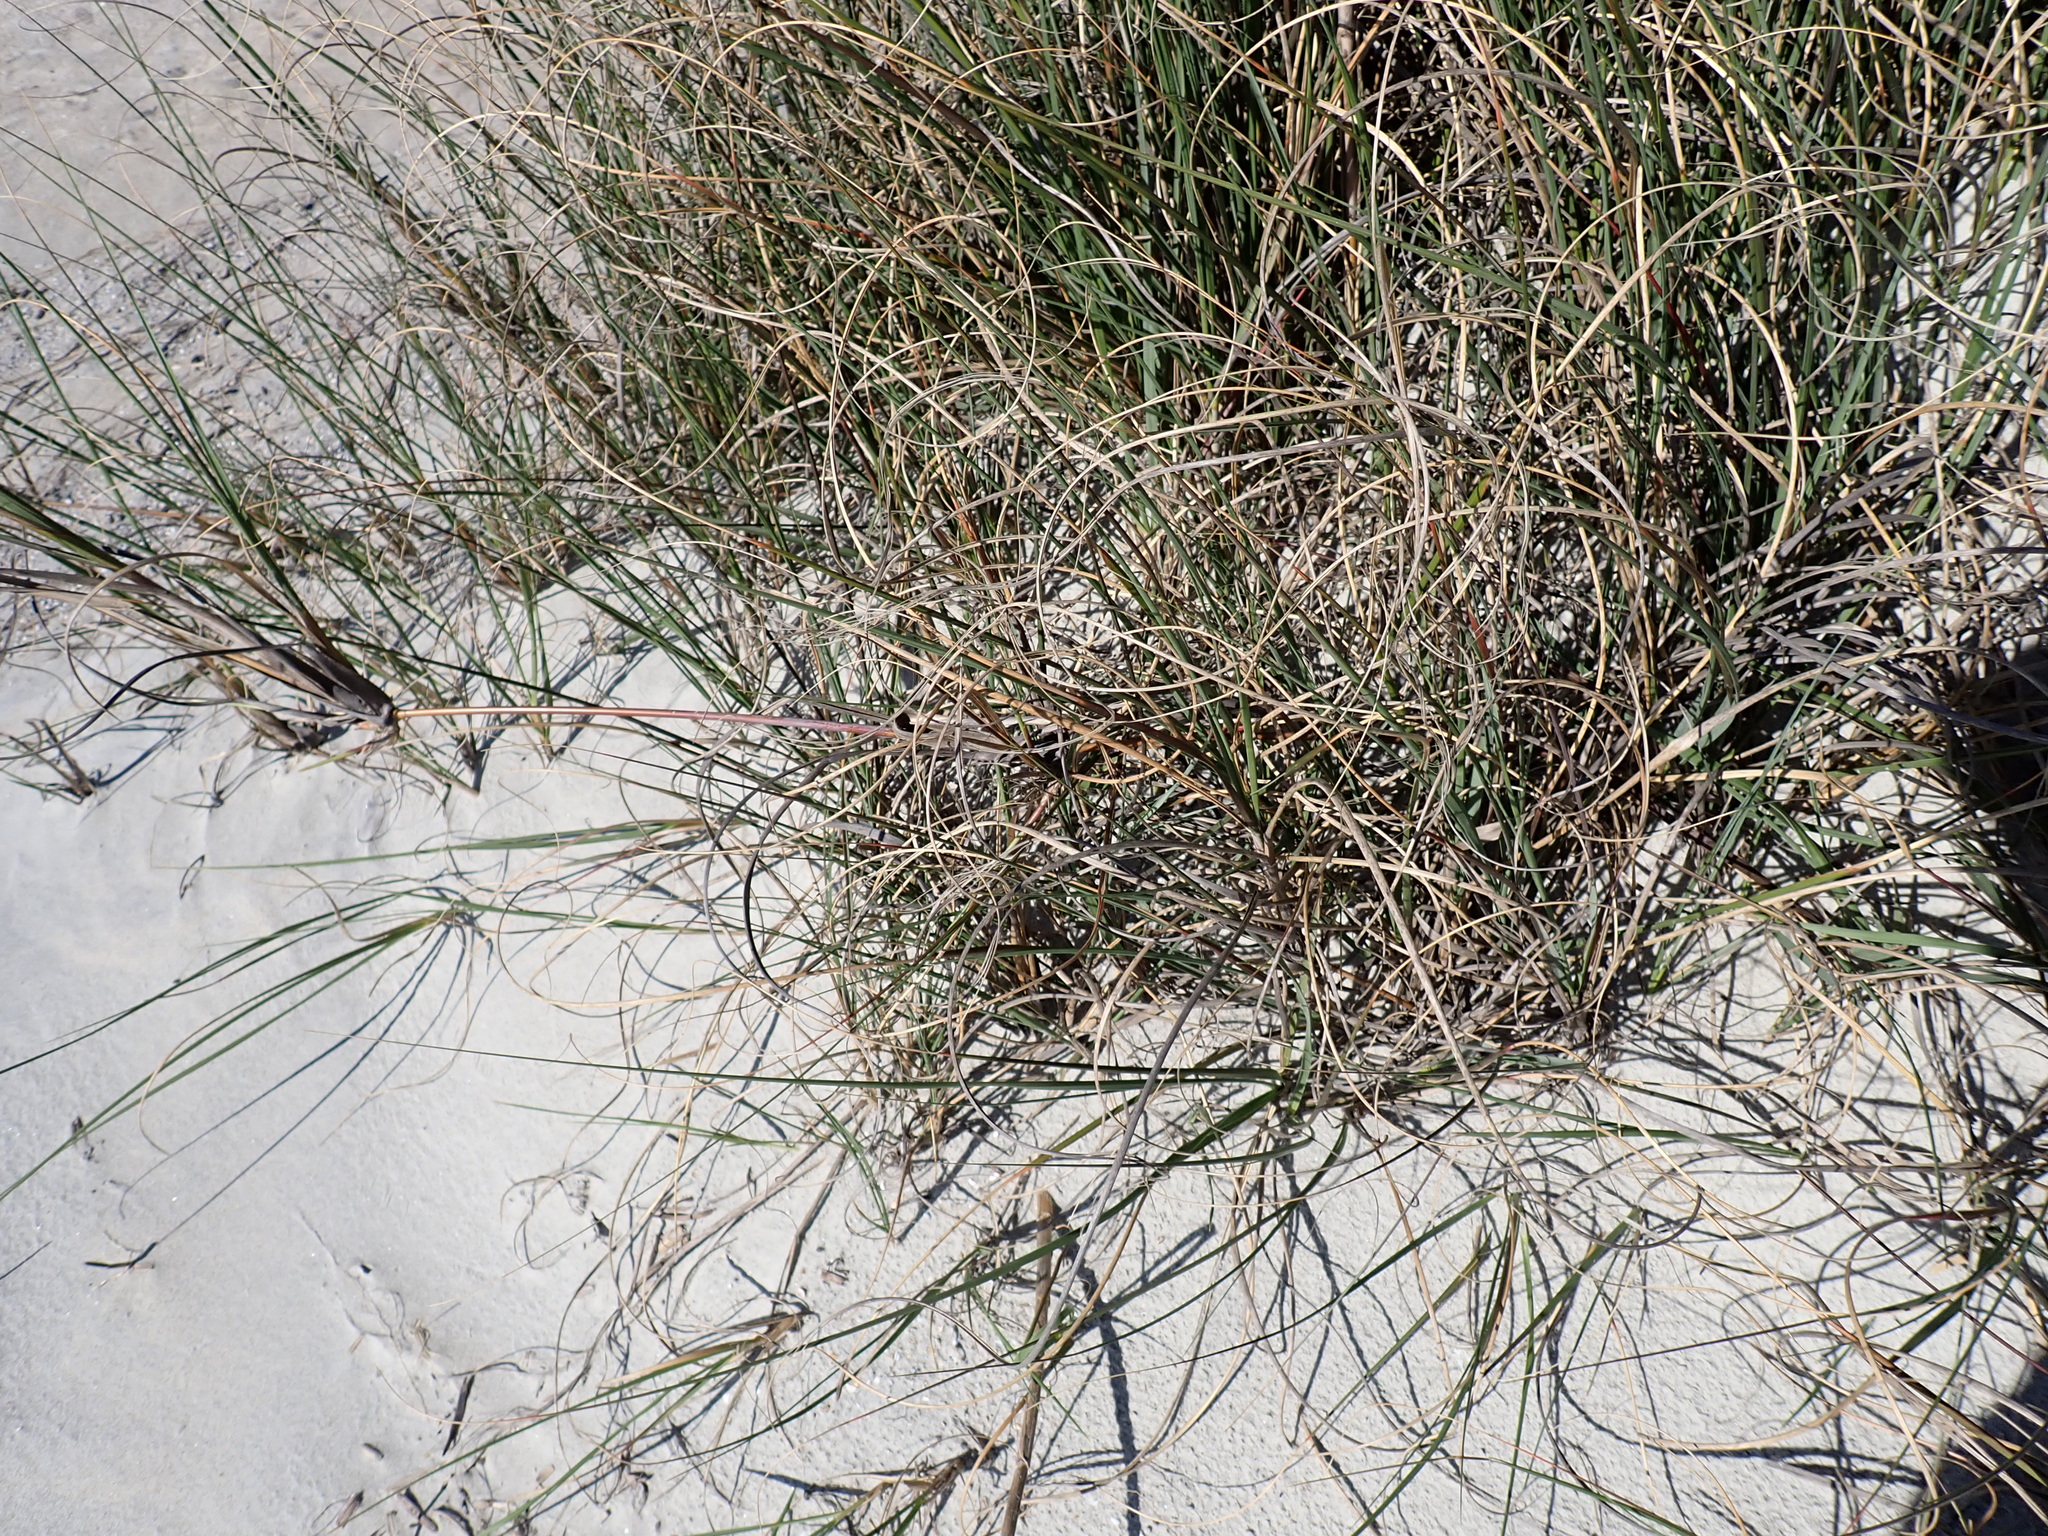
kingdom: Plantae
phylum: Tracheophyta
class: Liliopsida
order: Poales
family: Poaceae
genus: Uniola
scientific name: Uniola paniculata
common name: Seaside-oats
